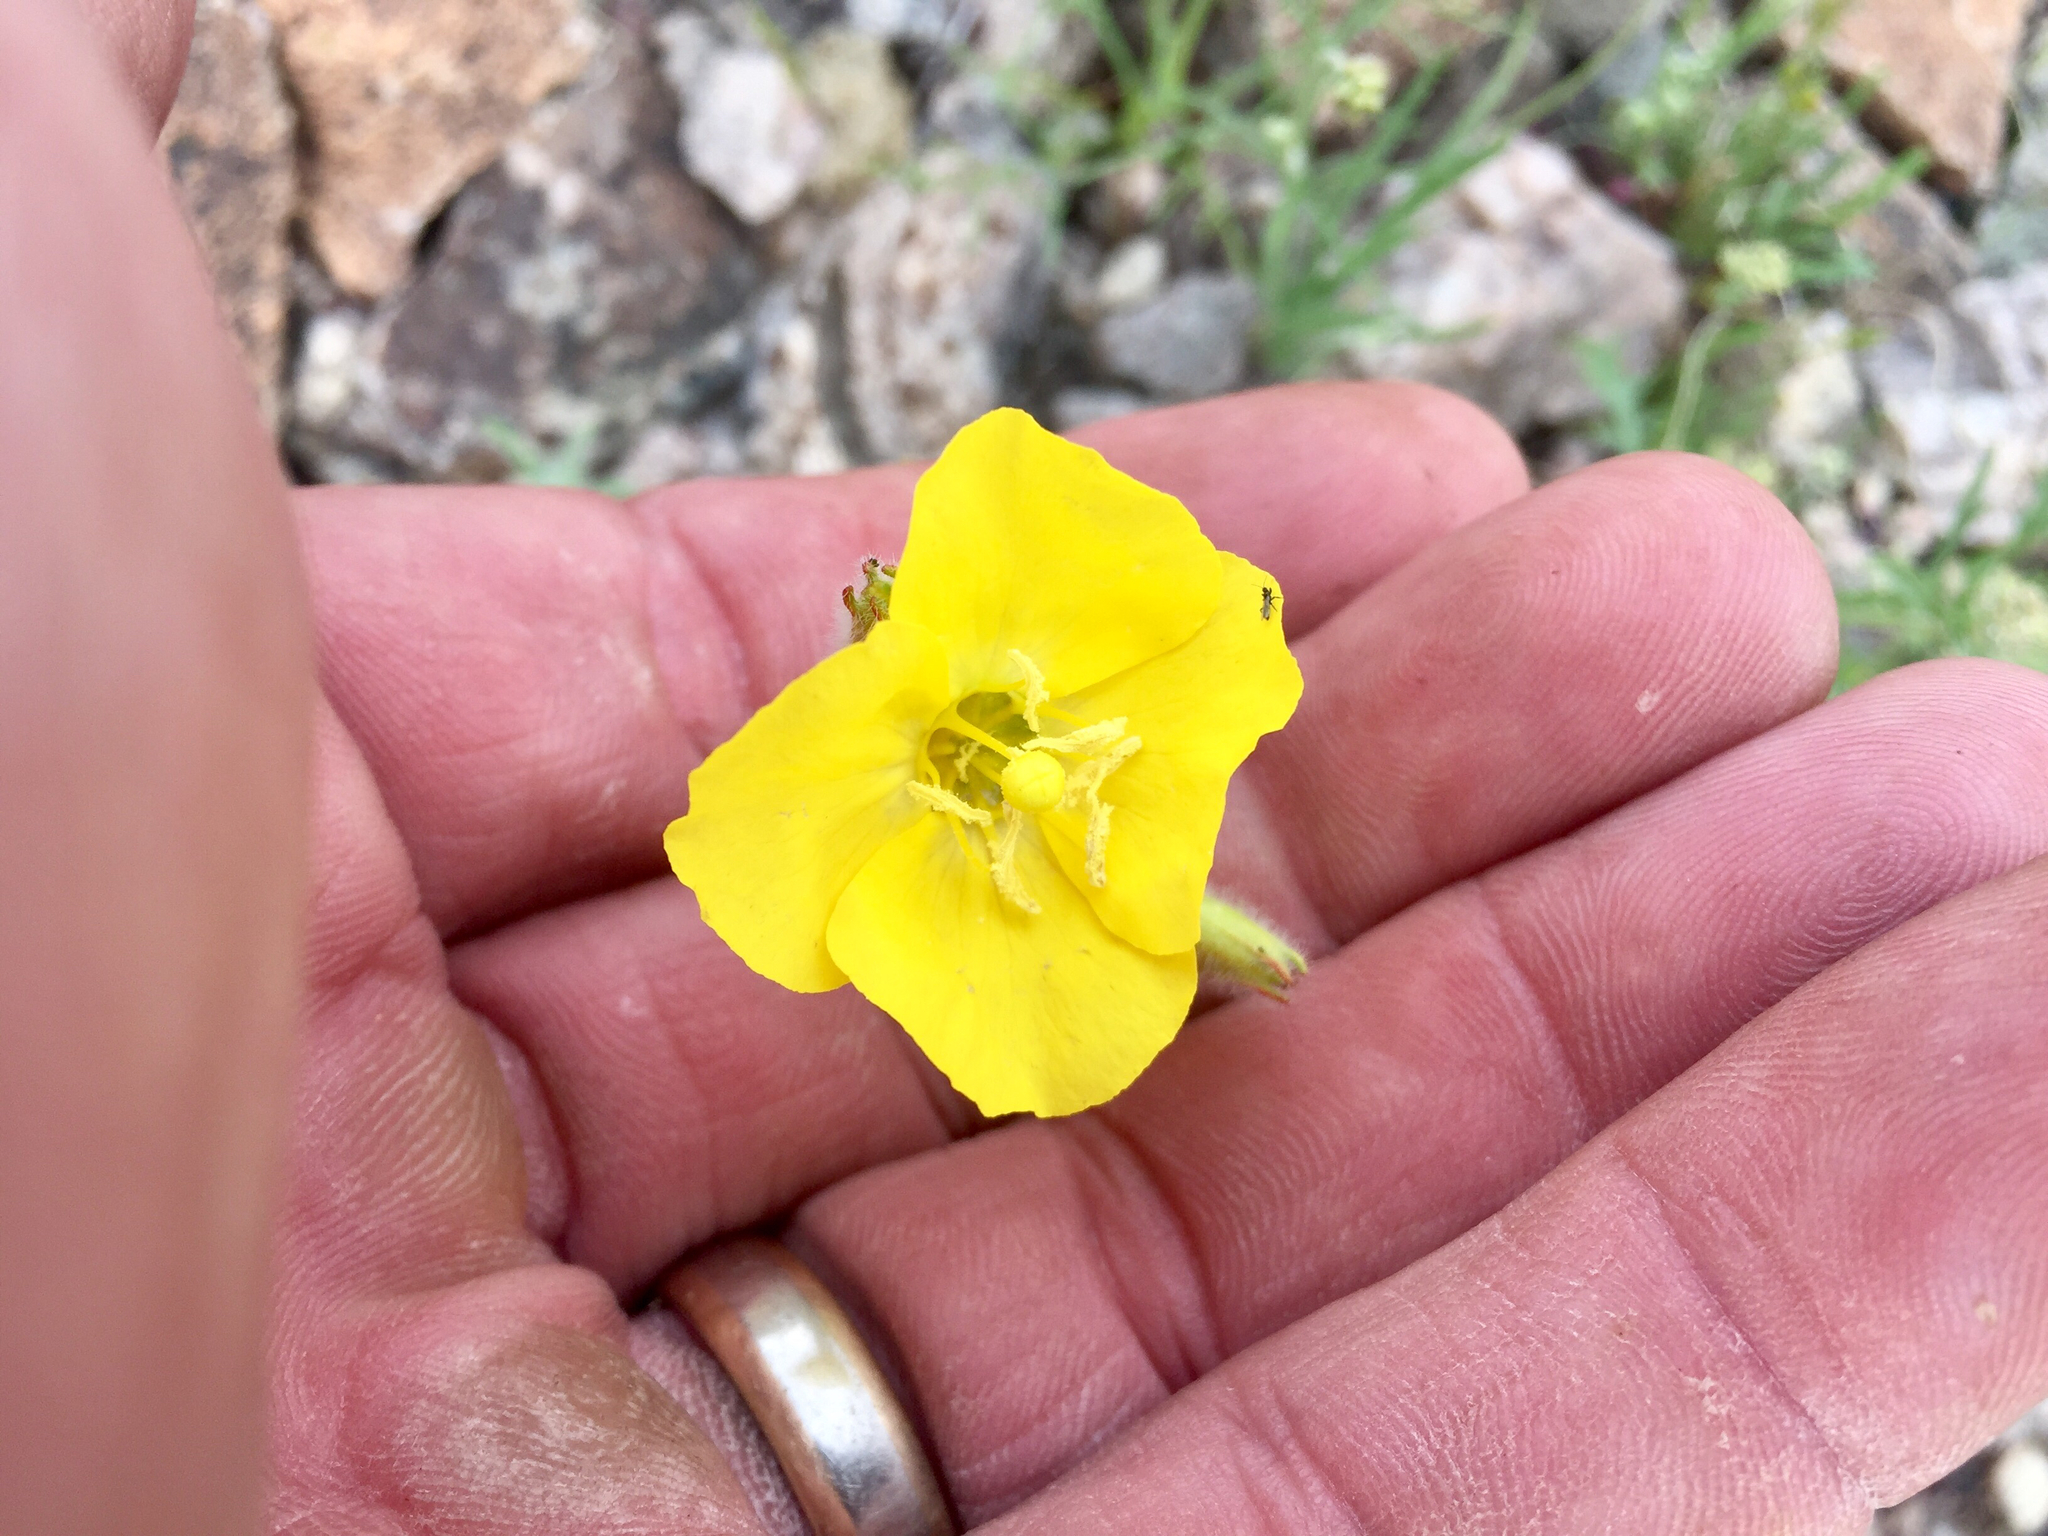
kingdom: Plantae
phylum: Tracheophyta
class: Magnoliopsida
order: Myrtales
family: Onagraceae
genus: Chylismia
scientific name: Chylismia brevipes
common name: Yellow cups
